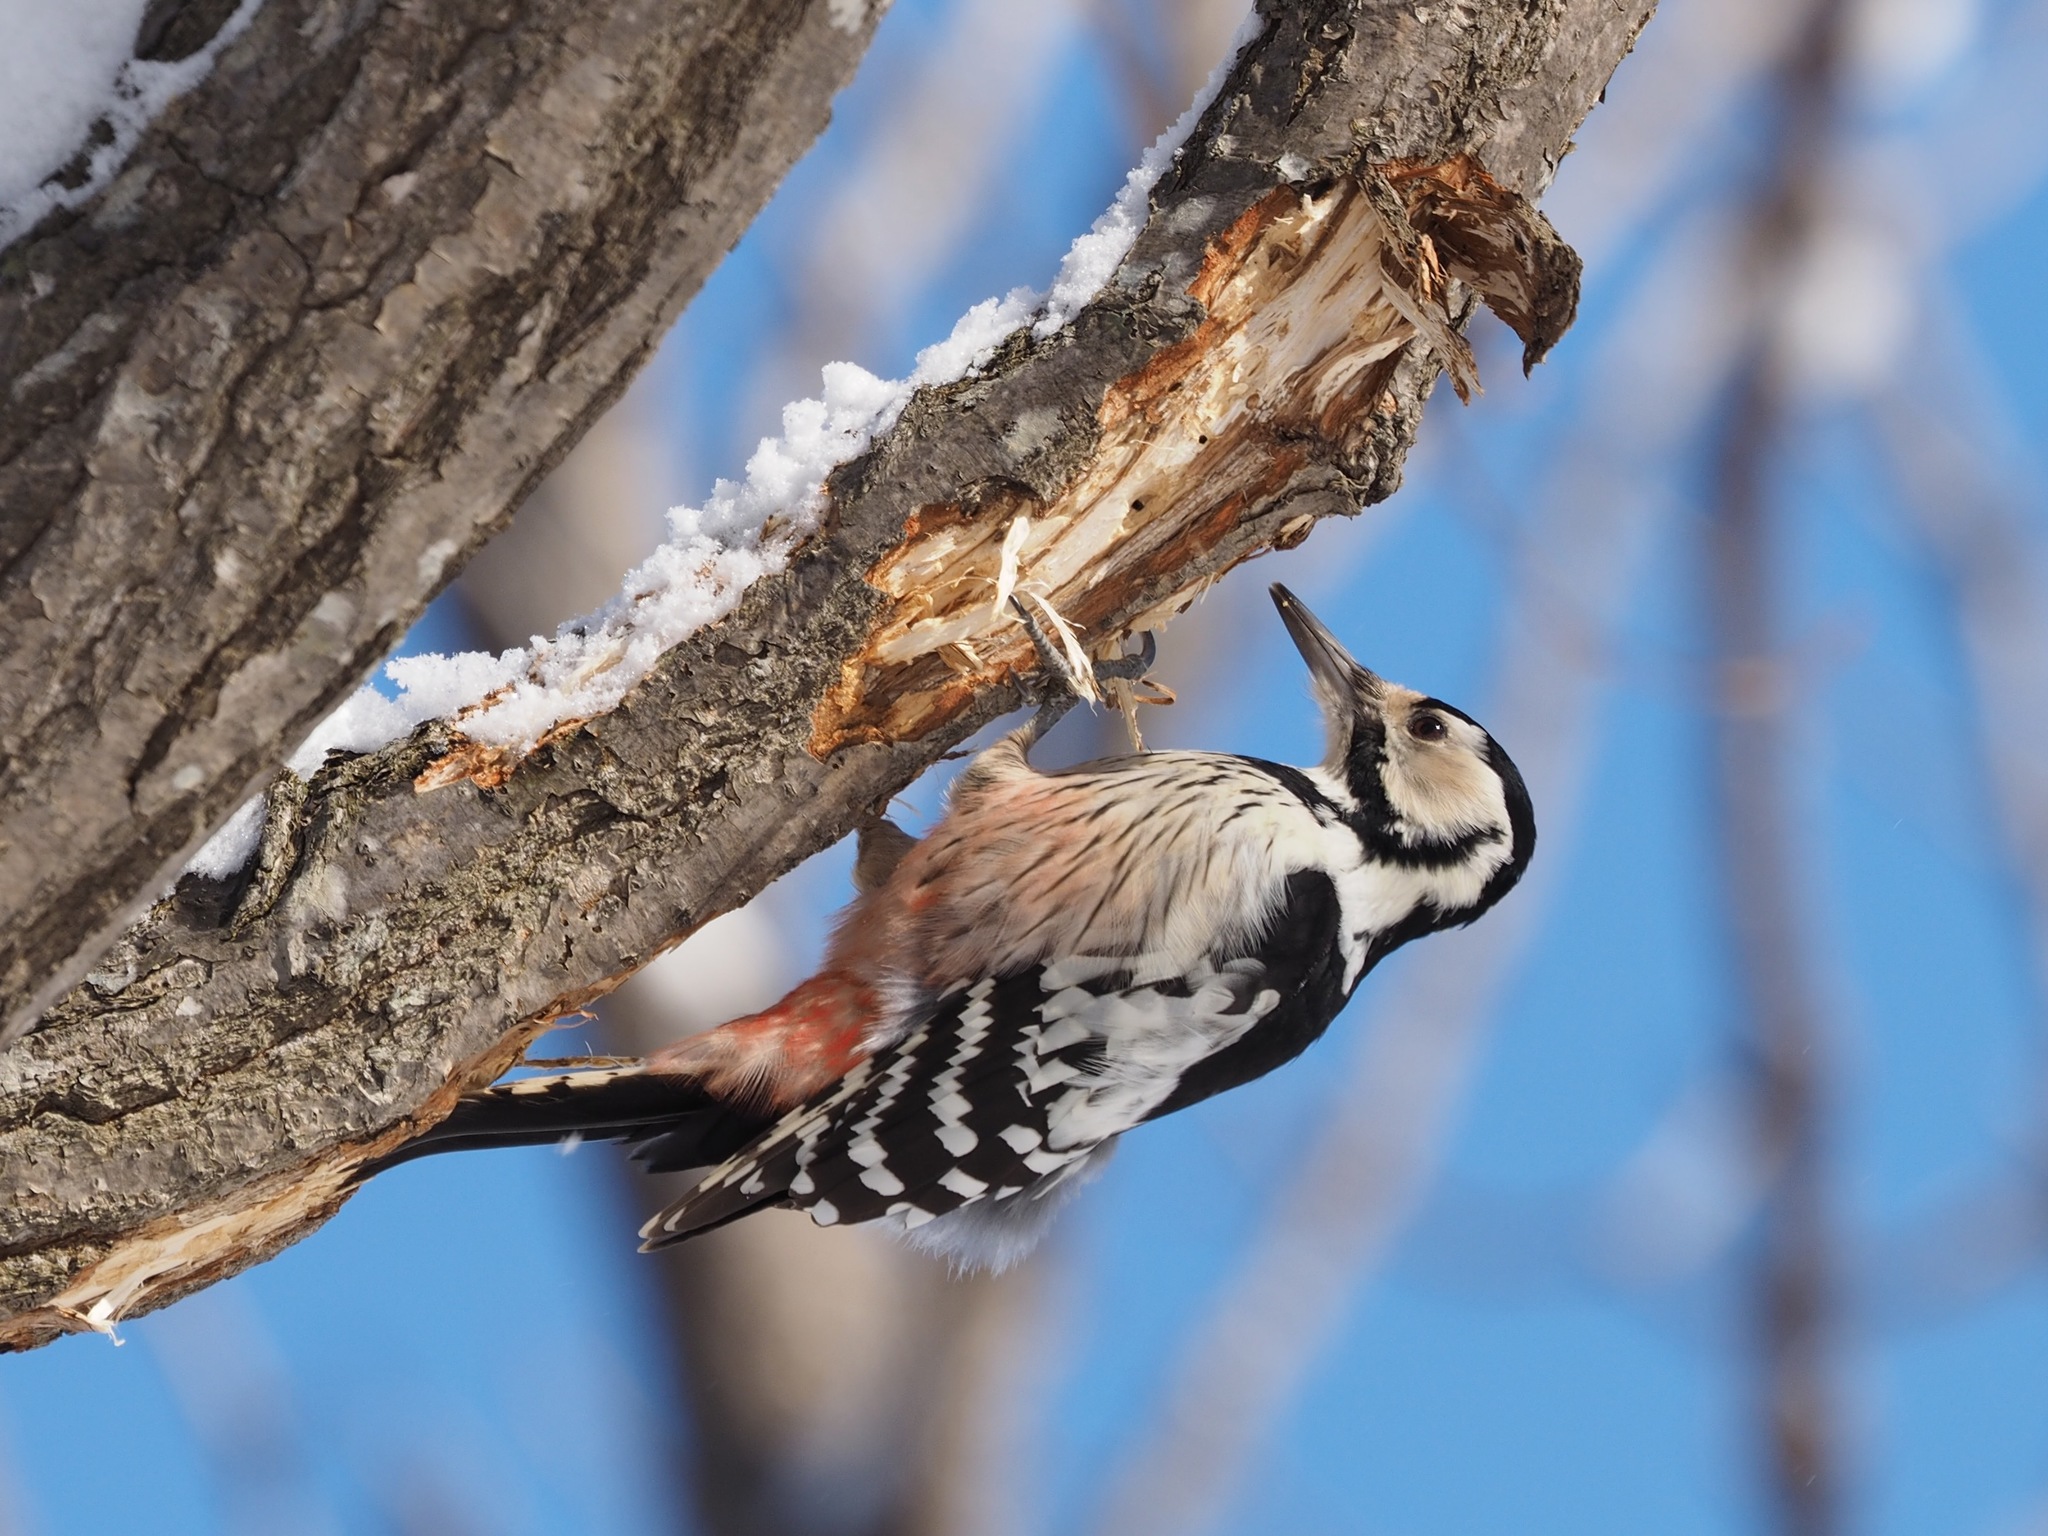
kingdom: Animalia
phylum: Chordata
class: Aves
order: Piciformes
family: Picidae
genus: Dendrocopos
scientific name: Dendrocopos leucotos
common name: White-backed woodpecker
